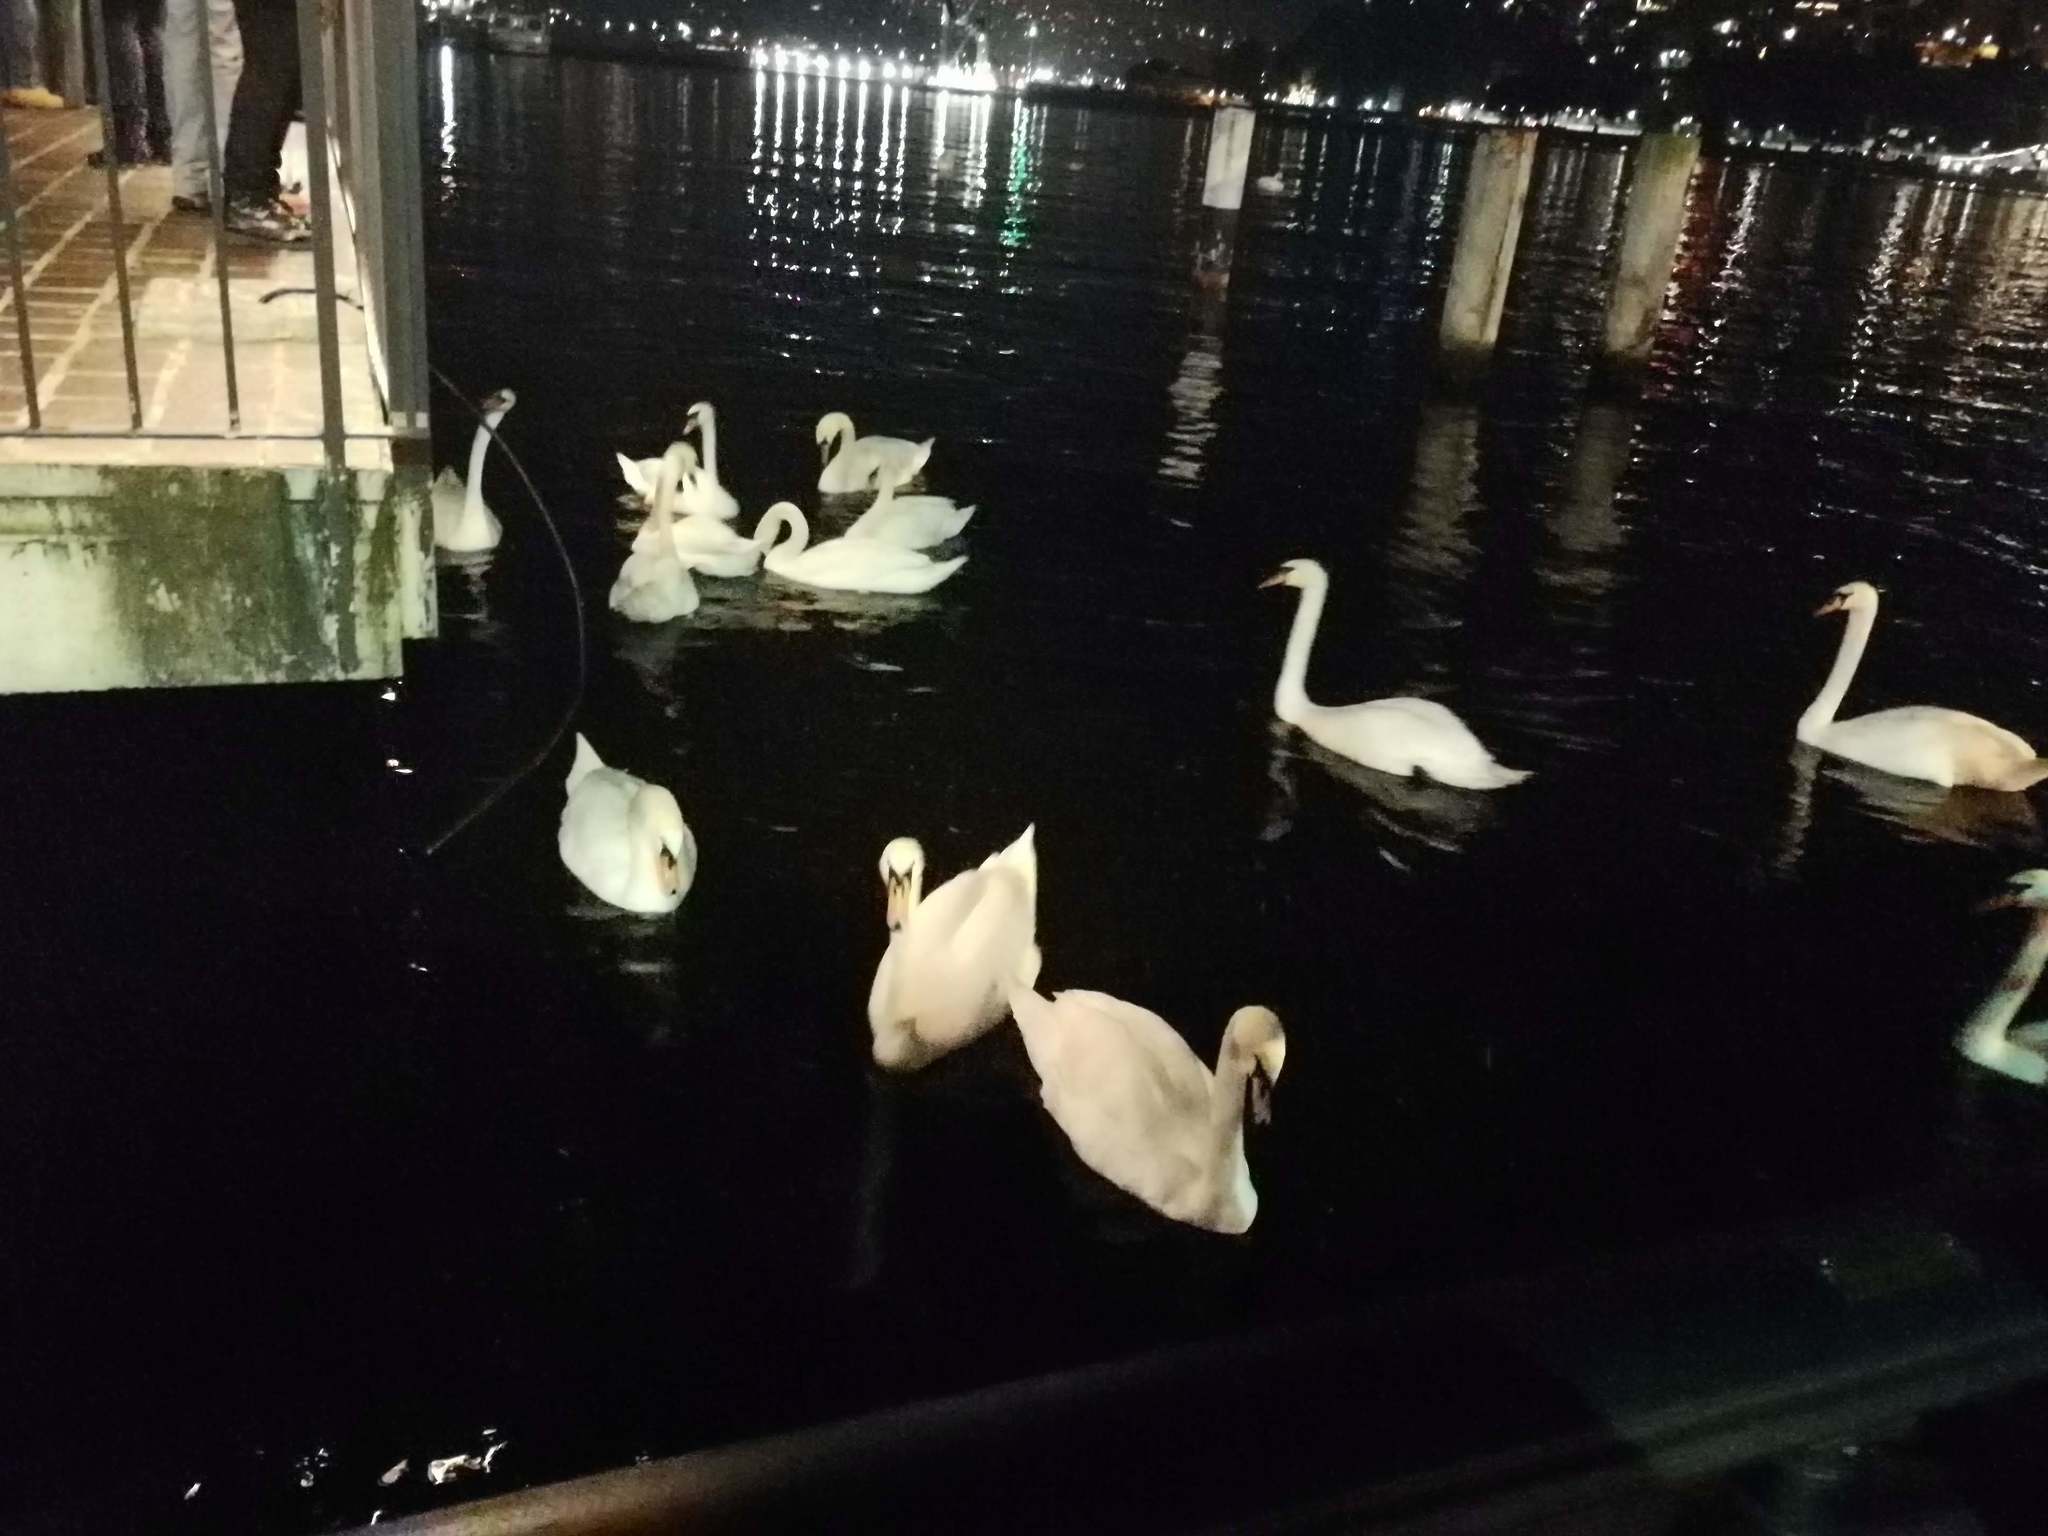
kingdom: Animalia
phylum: Chordata
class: Aves
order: Anseriformes
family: Anatidae
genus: Cygnus
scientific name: Cygnus olor
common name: Mute swan
